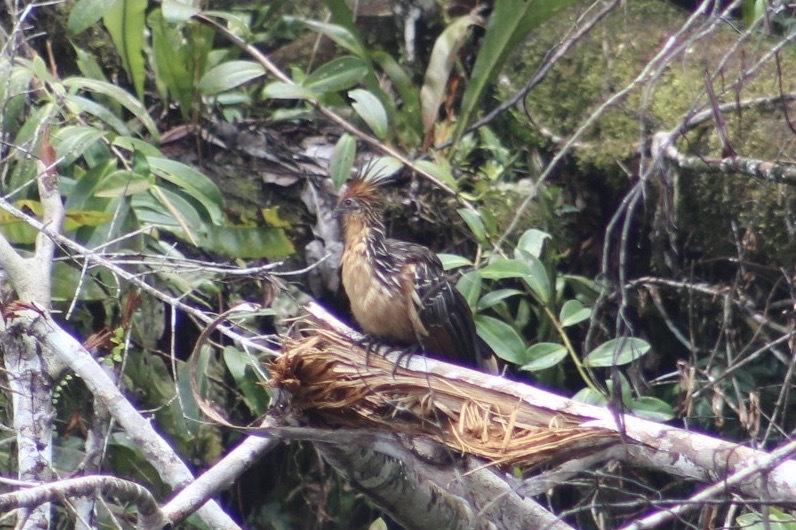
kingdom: Animalia
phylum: Chordata
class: Aves
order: Opisthocomiformes
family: Opisthocomidae
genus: Opisthocomus
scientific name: Opisthocomus hoazin
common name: Hoatzin
